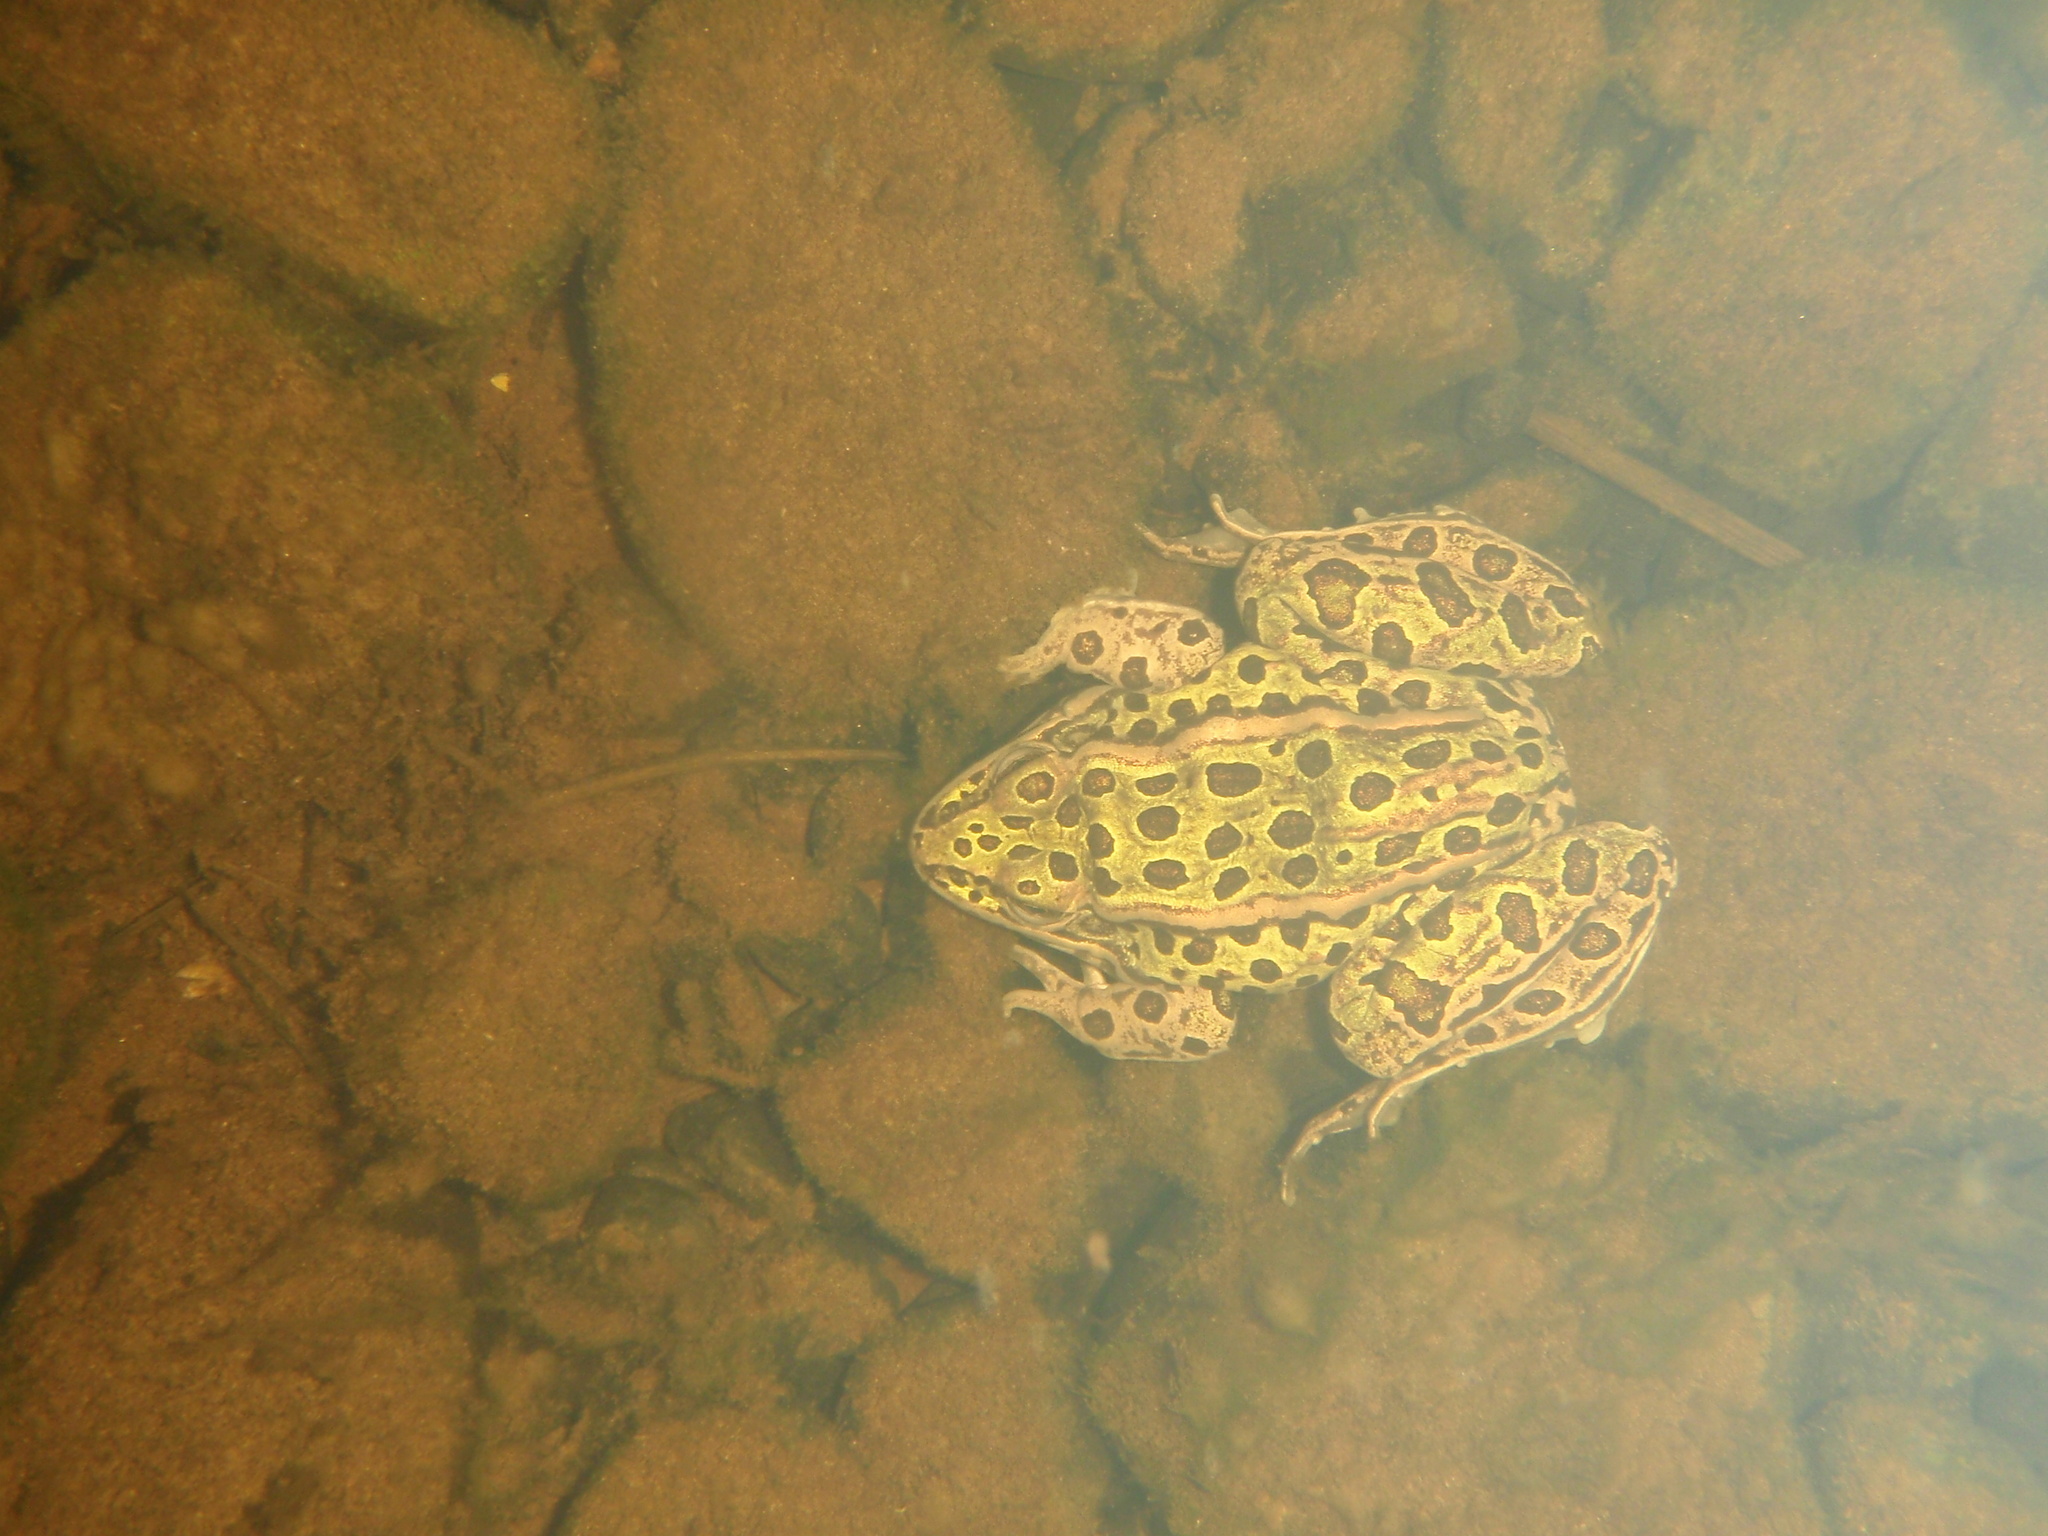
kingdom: Animalia
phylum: Chordata
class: Amphibia
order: Anura
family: Ranidae
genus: Lithobates
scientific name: Lithobates pipiens
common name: Northern leopard frog
